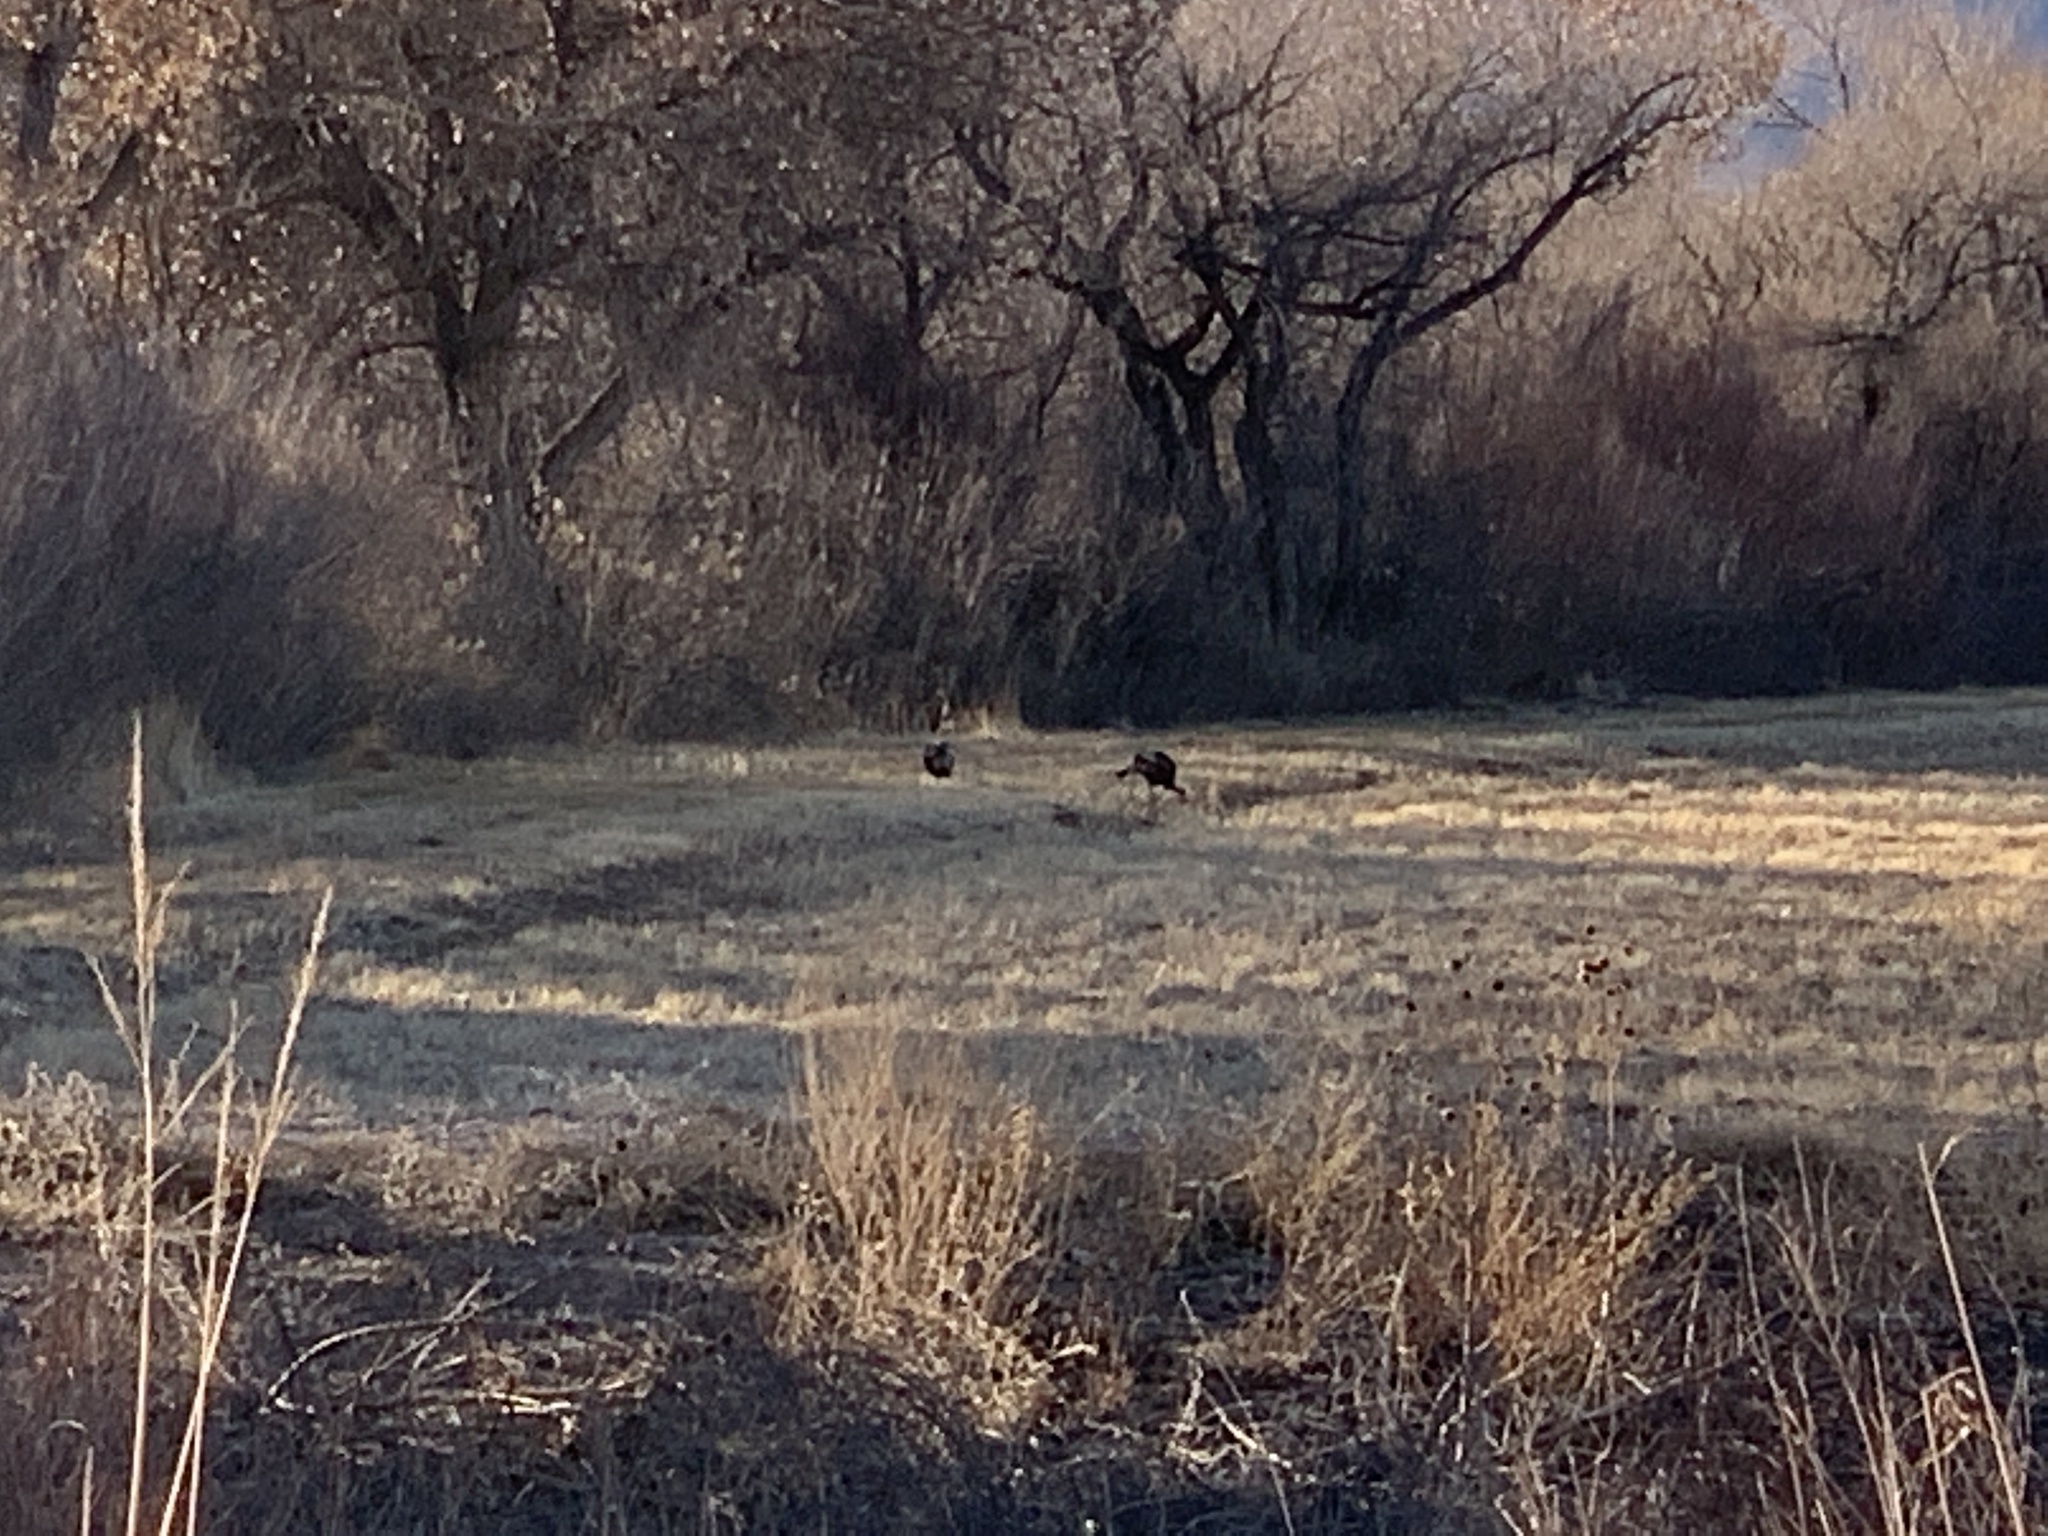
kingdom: Animalia
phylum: Chordata
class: Aves
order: Galliformes
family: Phasianidae
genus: Meleagris
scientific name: Meleagris gallopavo
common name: Wild turkey
